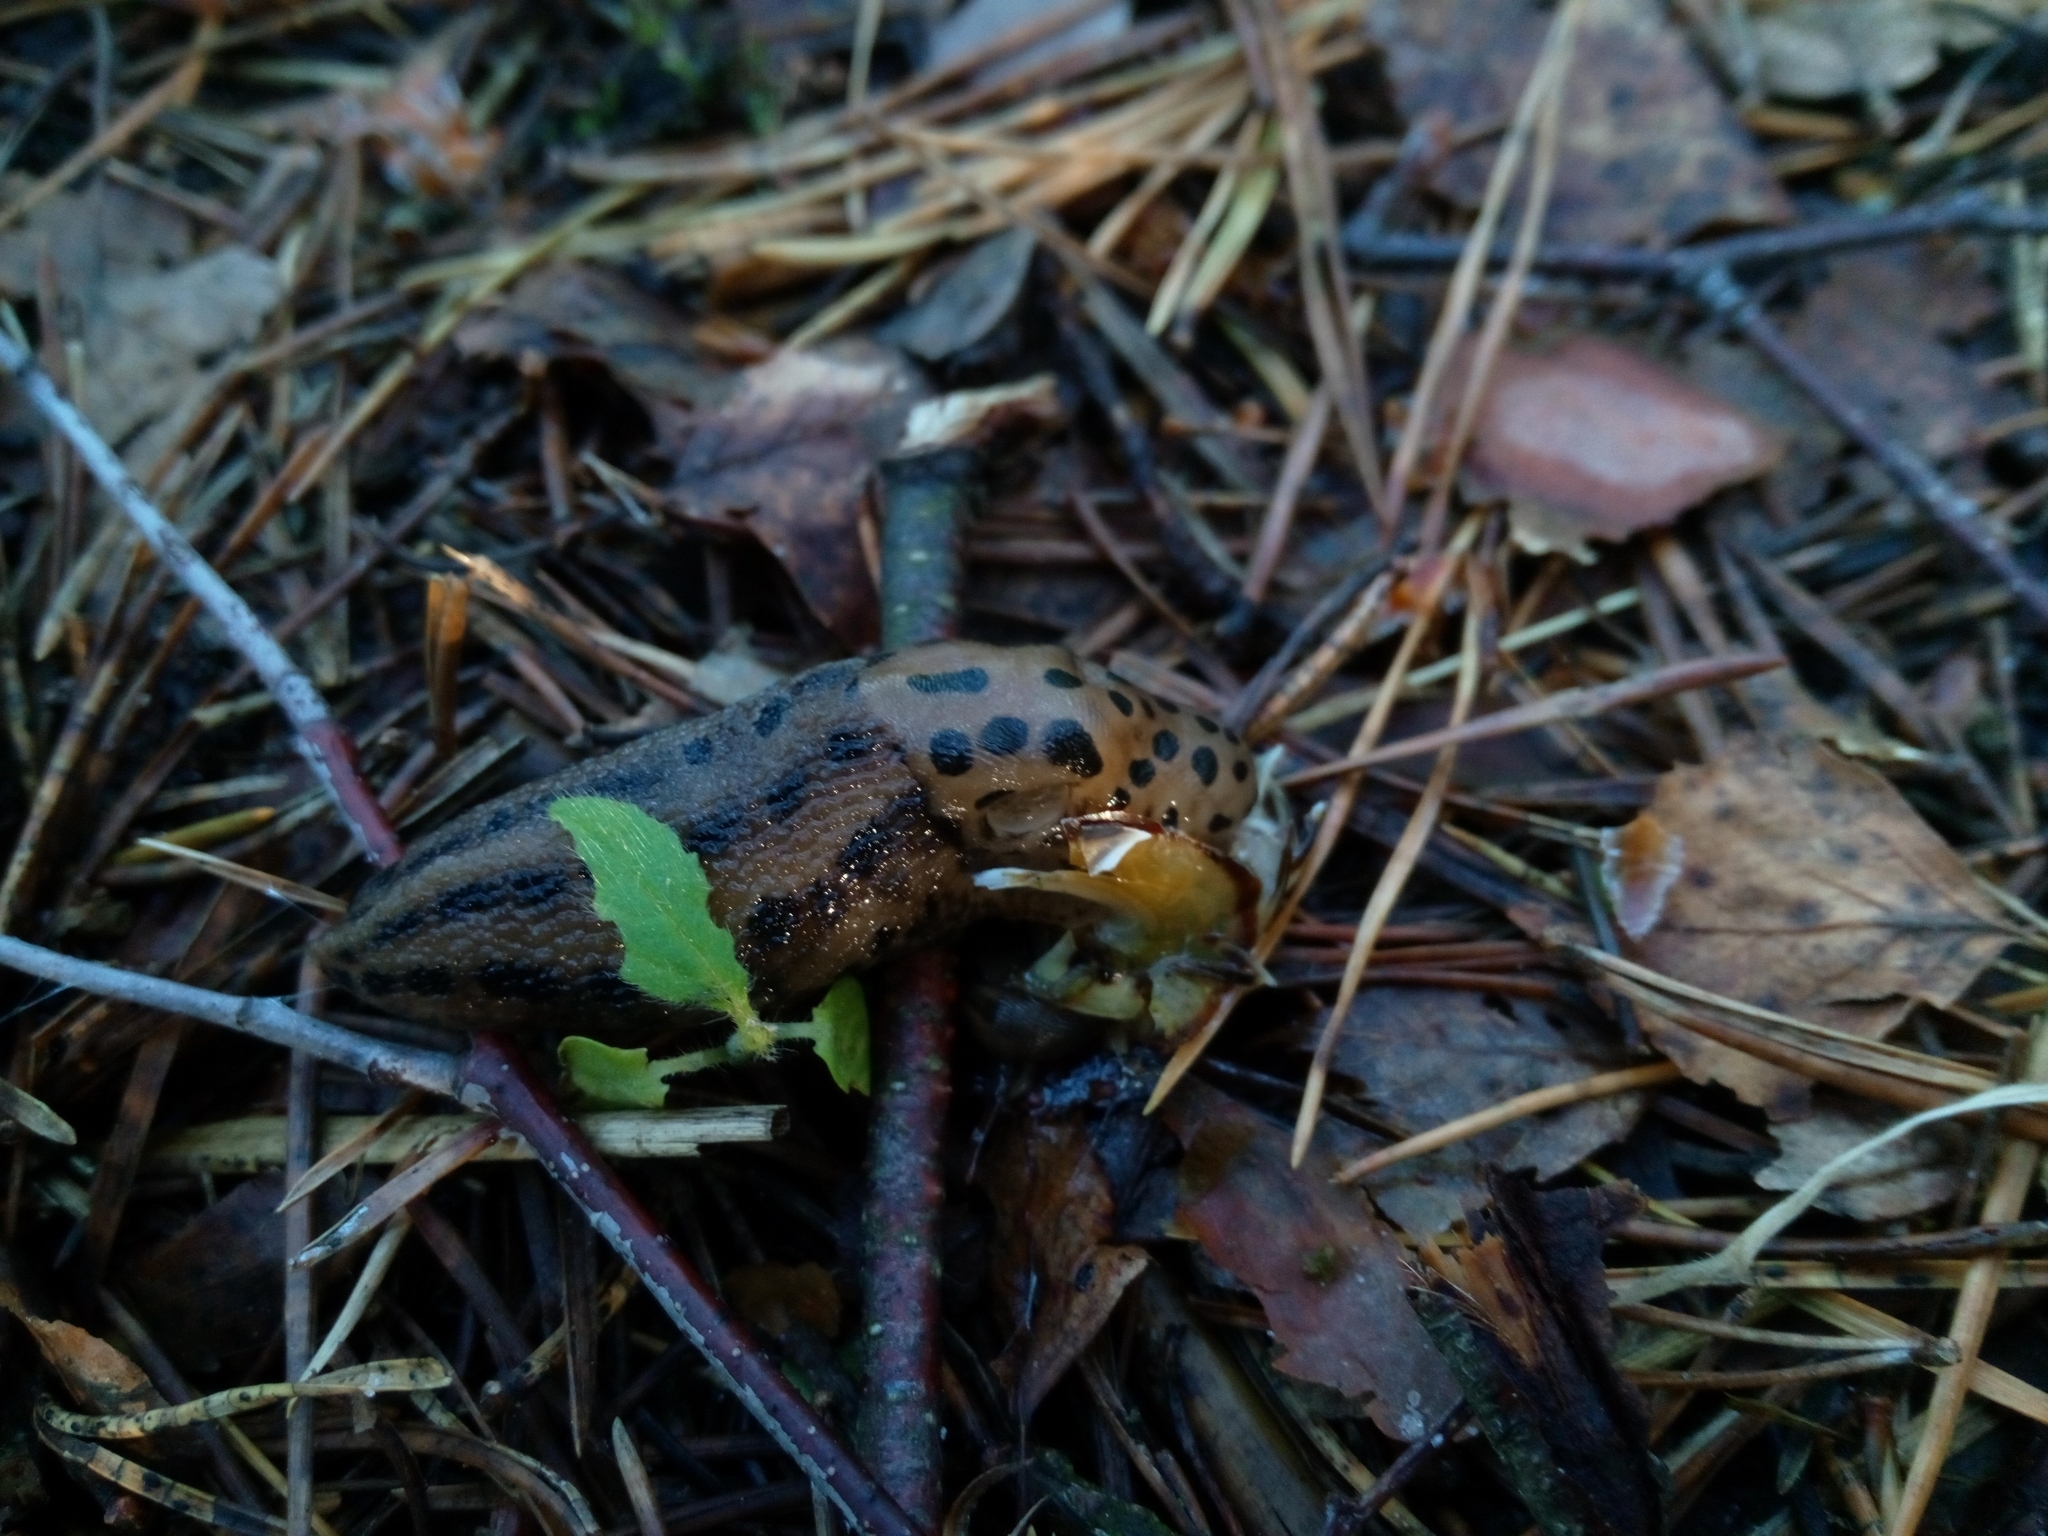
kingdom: Animalia
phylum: Mollusca
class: Gastropoda
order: Stylommatophora
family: Limacidae
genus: Limax
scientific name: Limax maximus
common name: Great grey slug
